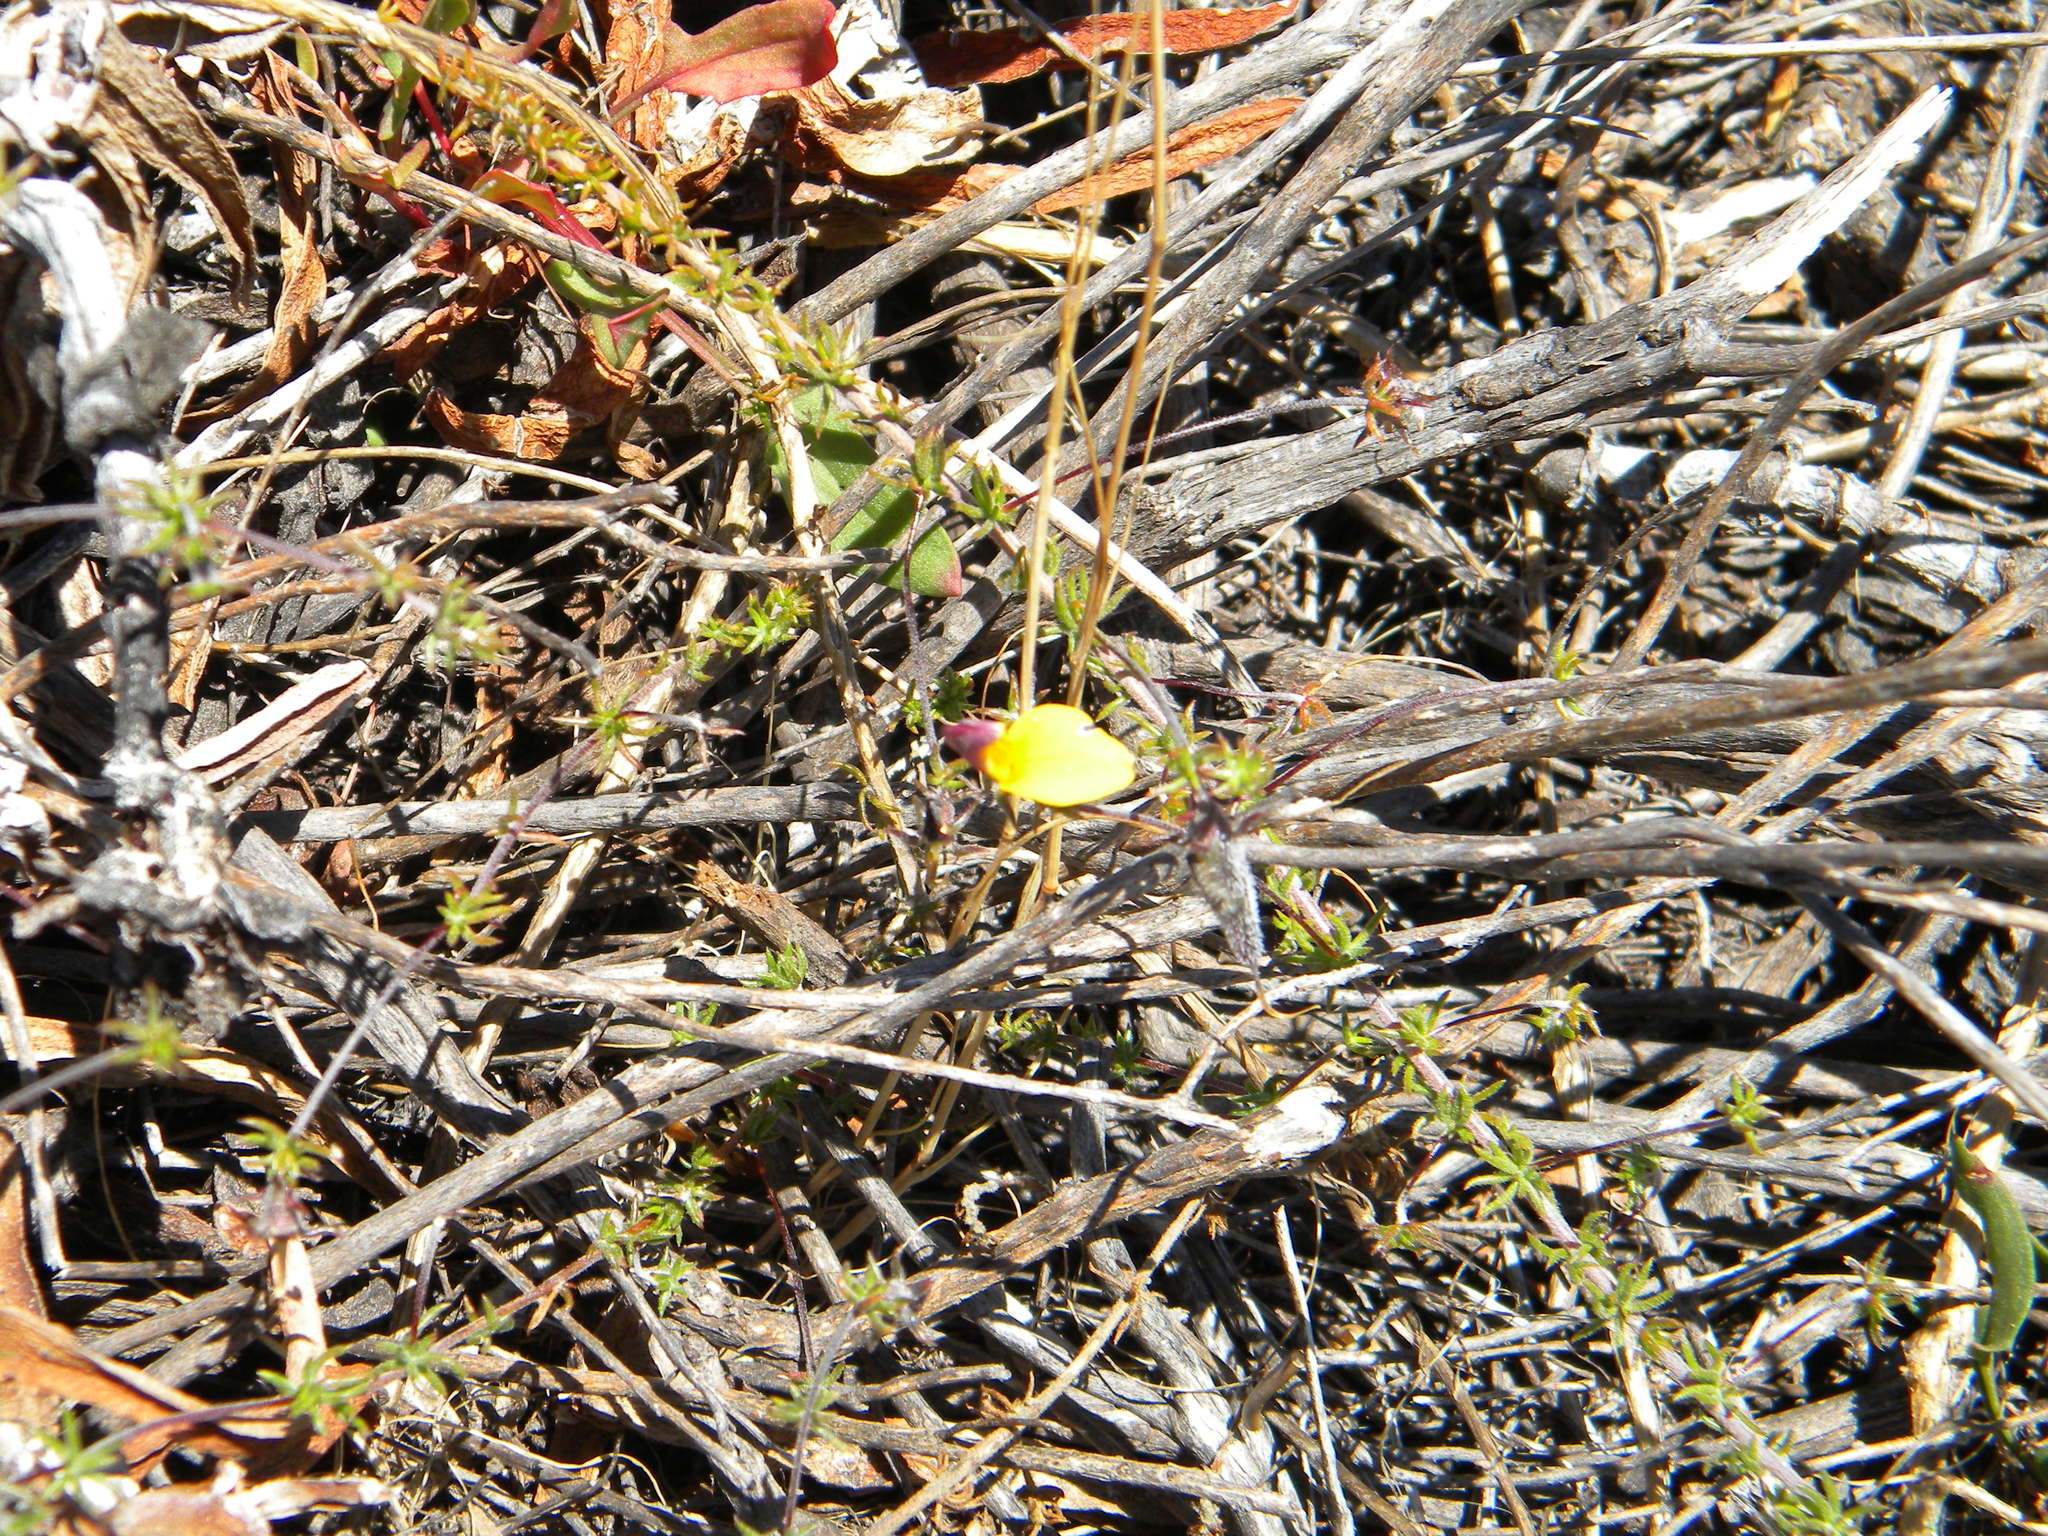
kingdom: Plantae
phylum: Tracheophyta
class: Magnoliopsida
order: Fabales
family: Fabaceae
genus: Aspalathus
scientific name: Aspalathus retroflexa
